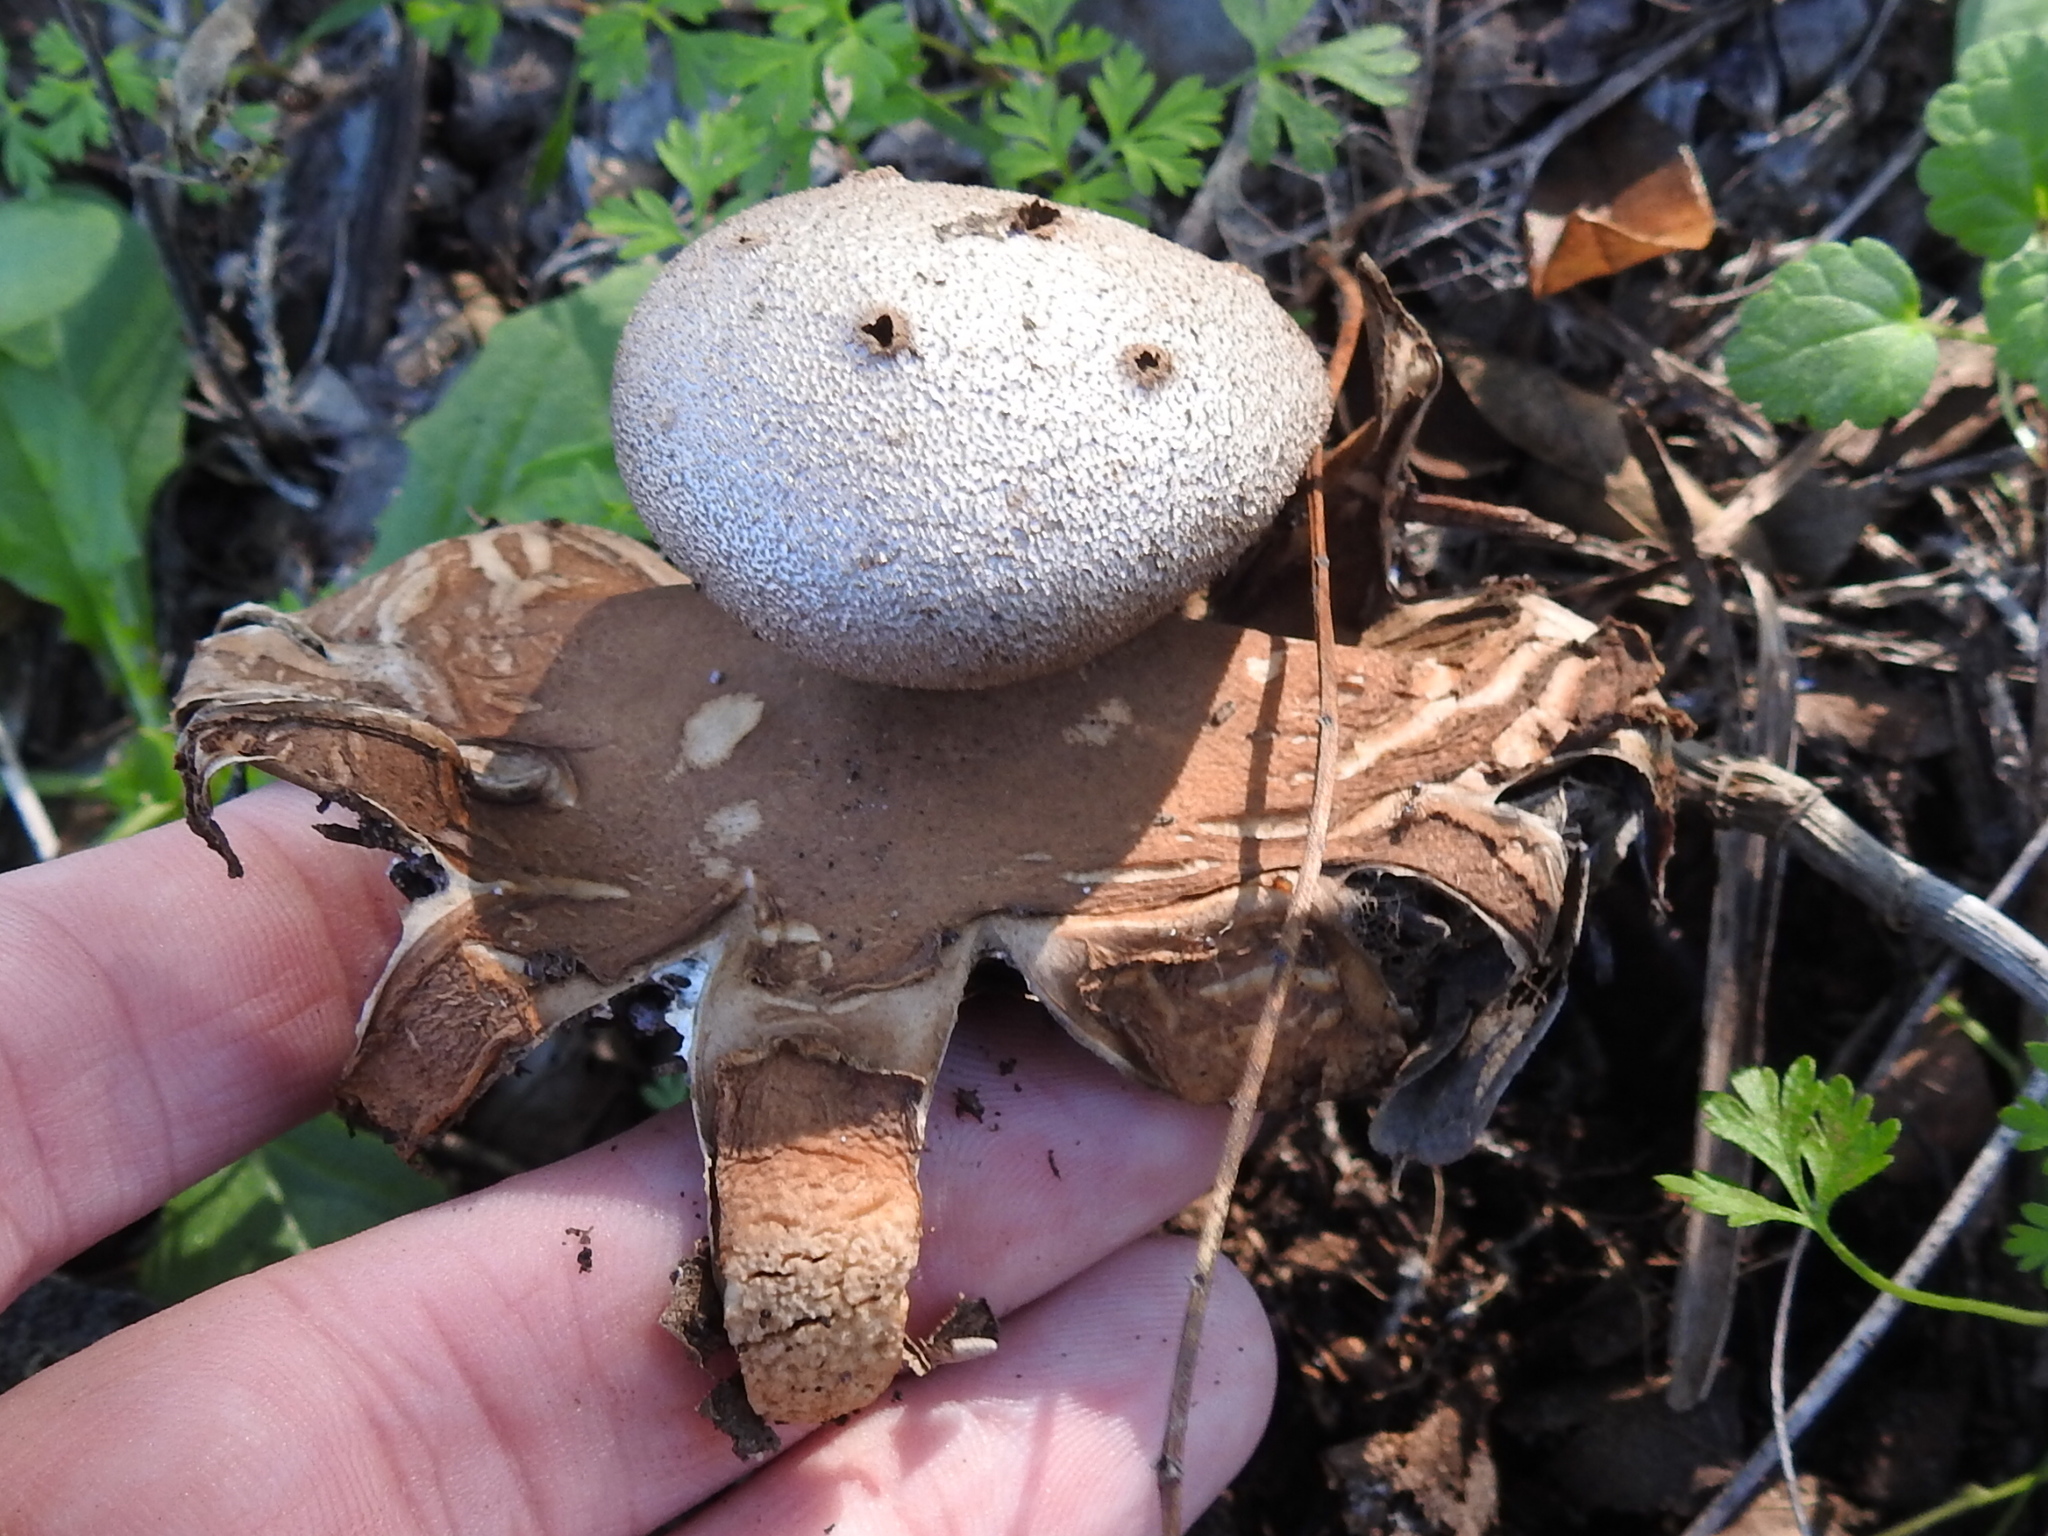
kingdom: Fungi
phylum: Basidiomycota
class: Agaricomycetes
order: Geastrales
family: Geastraceae
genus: Myriostoma
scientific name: Myriostoma coliforme
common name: Pepper pot
